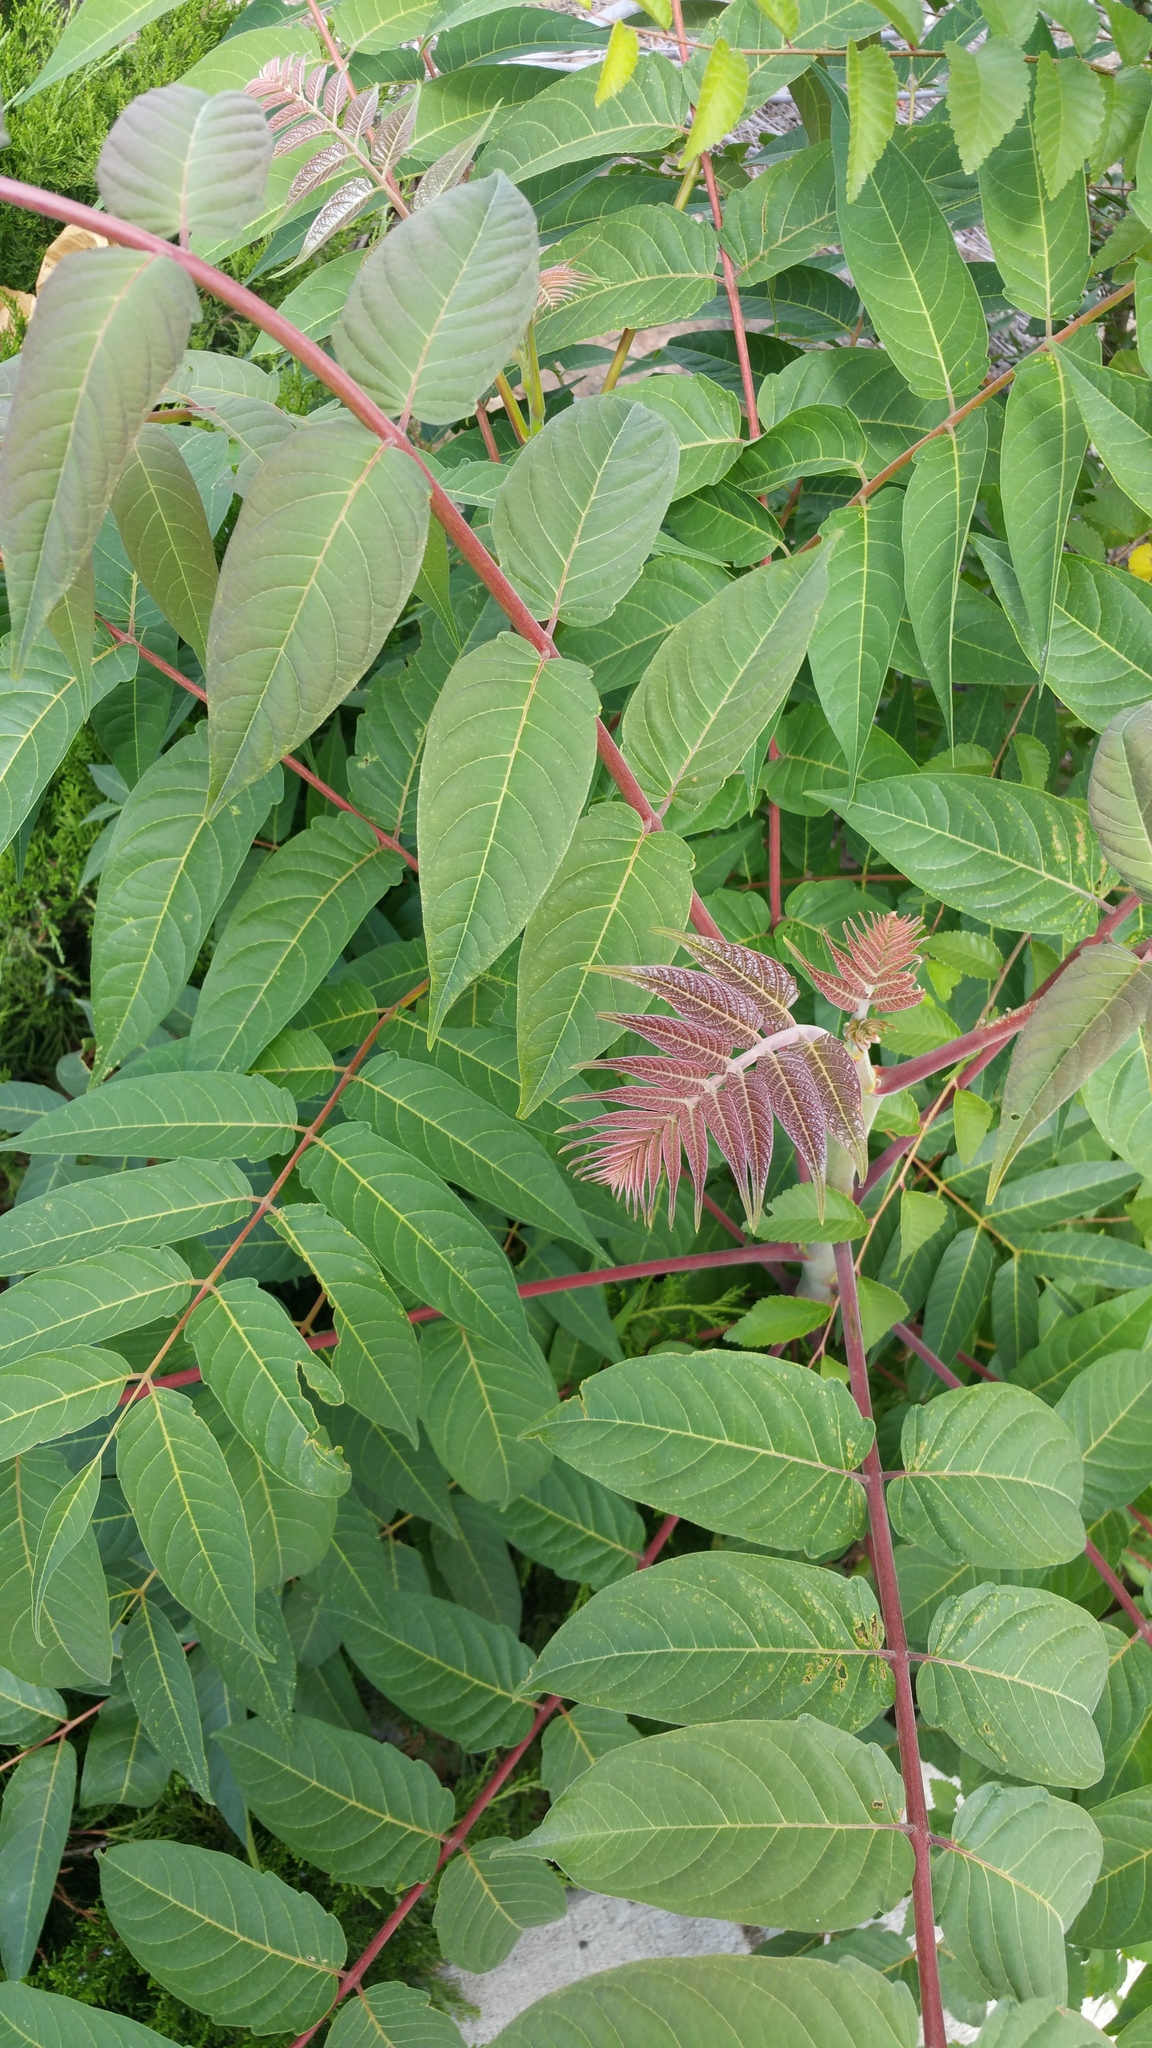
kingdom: Plantae
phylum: Tracheophyta
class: Magnoliopsida
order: Sapindales
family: Simaroubaceae
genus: Ailanthus
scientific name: Ailanthus altissima
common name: Tree-of-heaven
